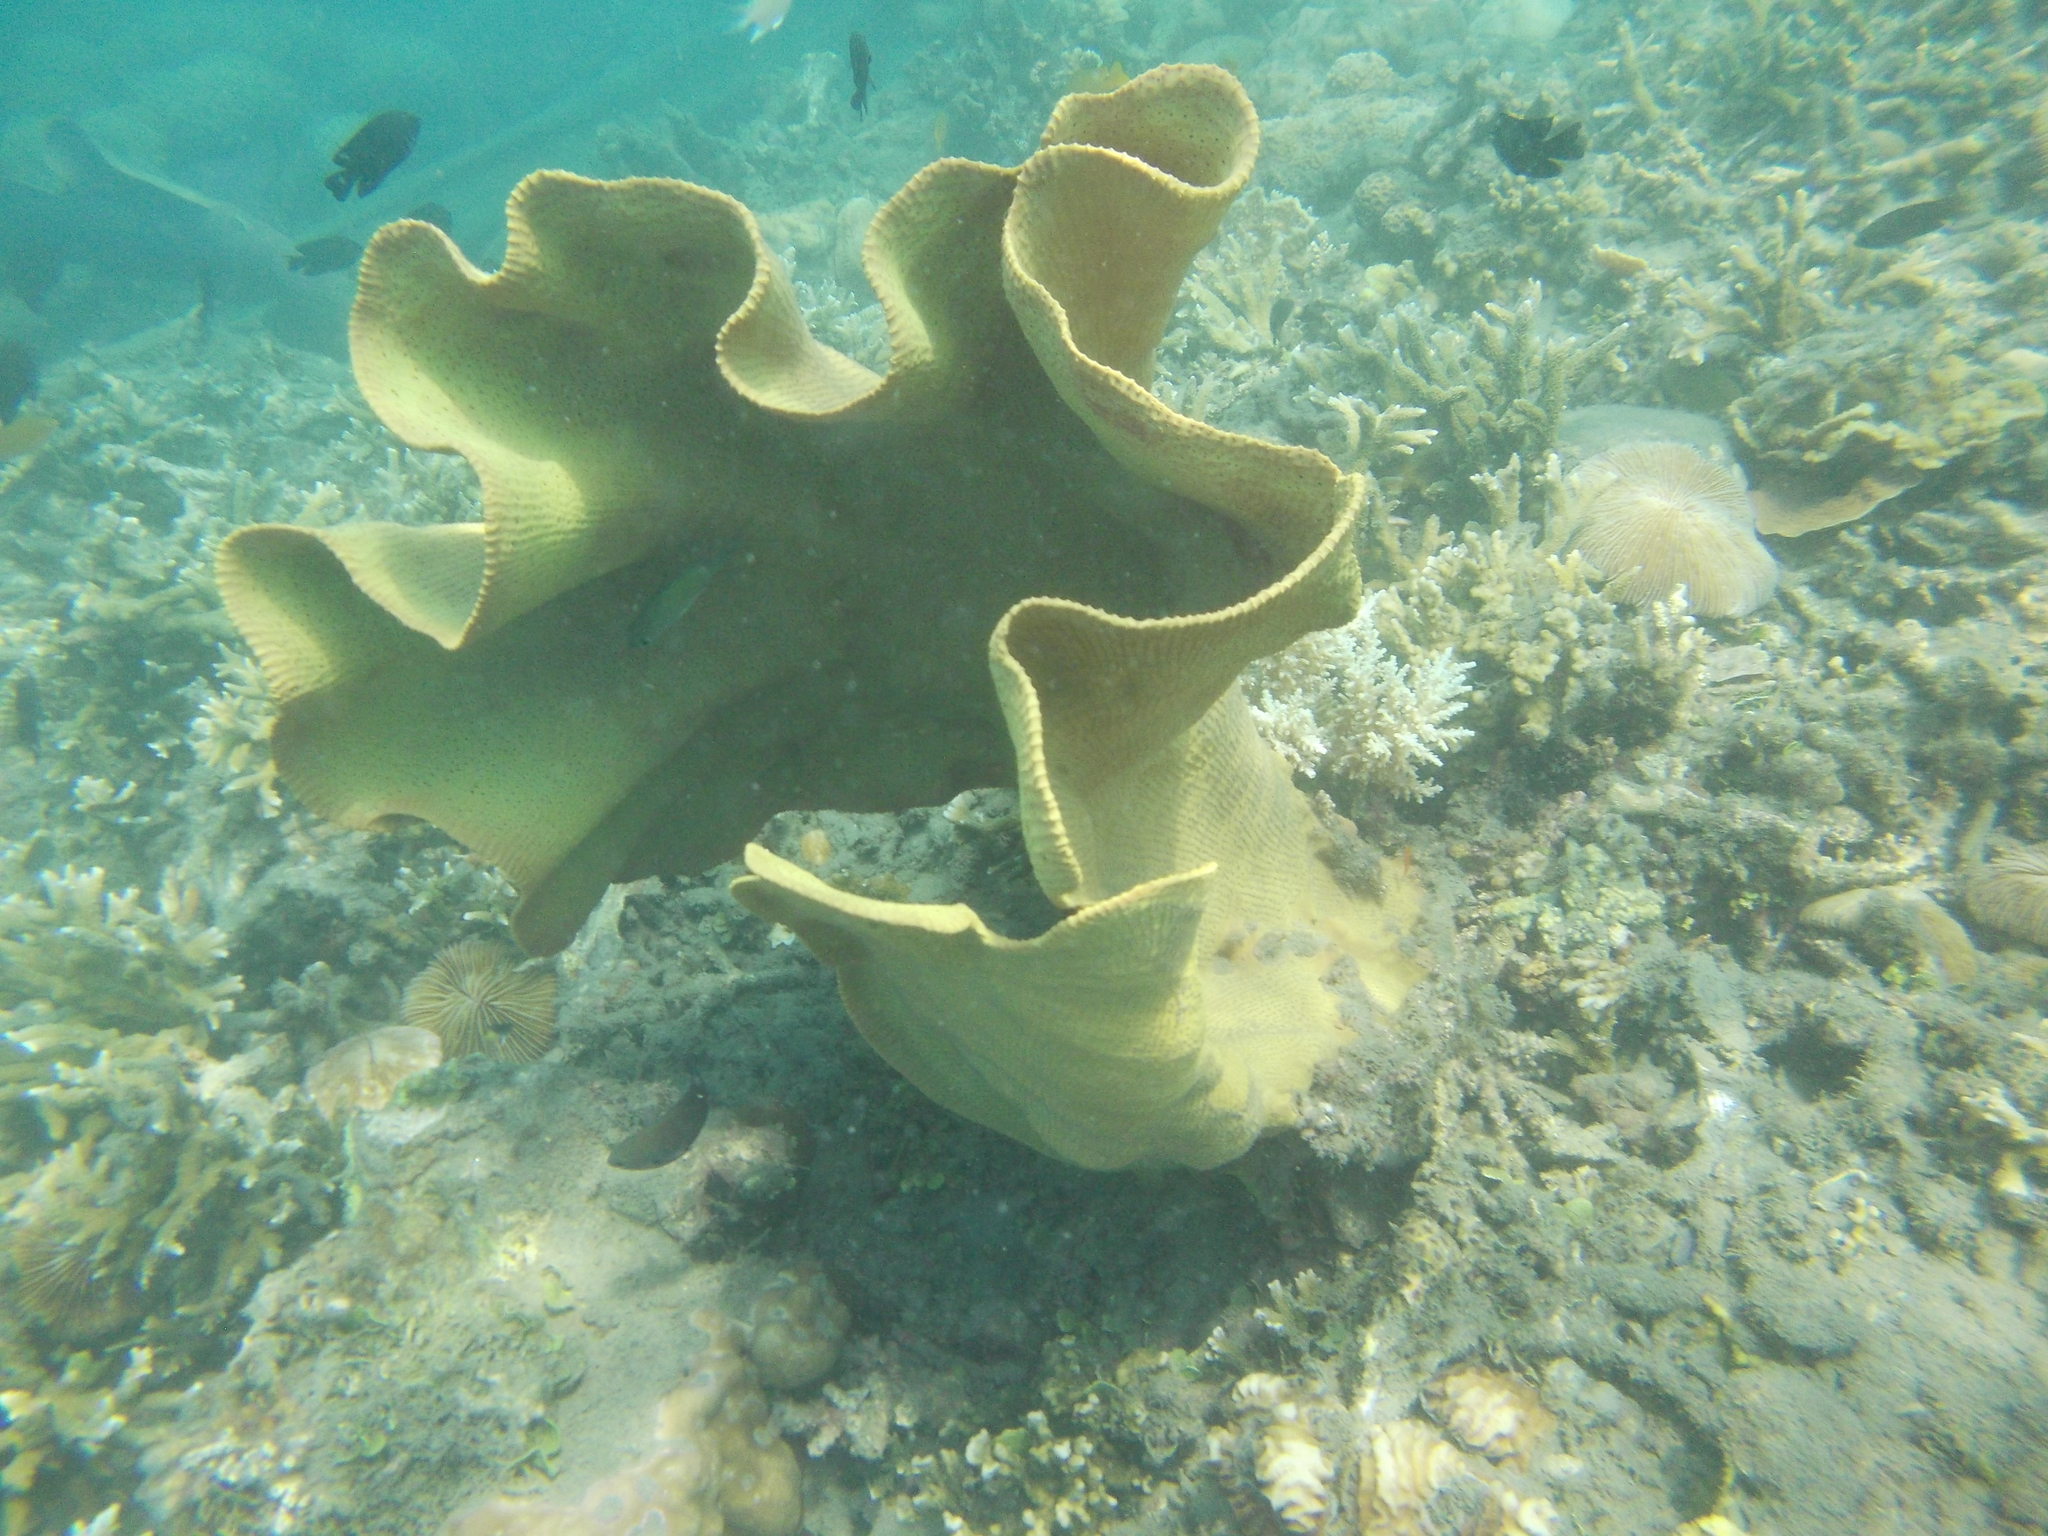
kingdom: Animalia
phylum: Porifera
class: Demospongiae
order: Verongiida
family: Ianthellidae
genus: Ianthella
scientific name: Ianthella basta
